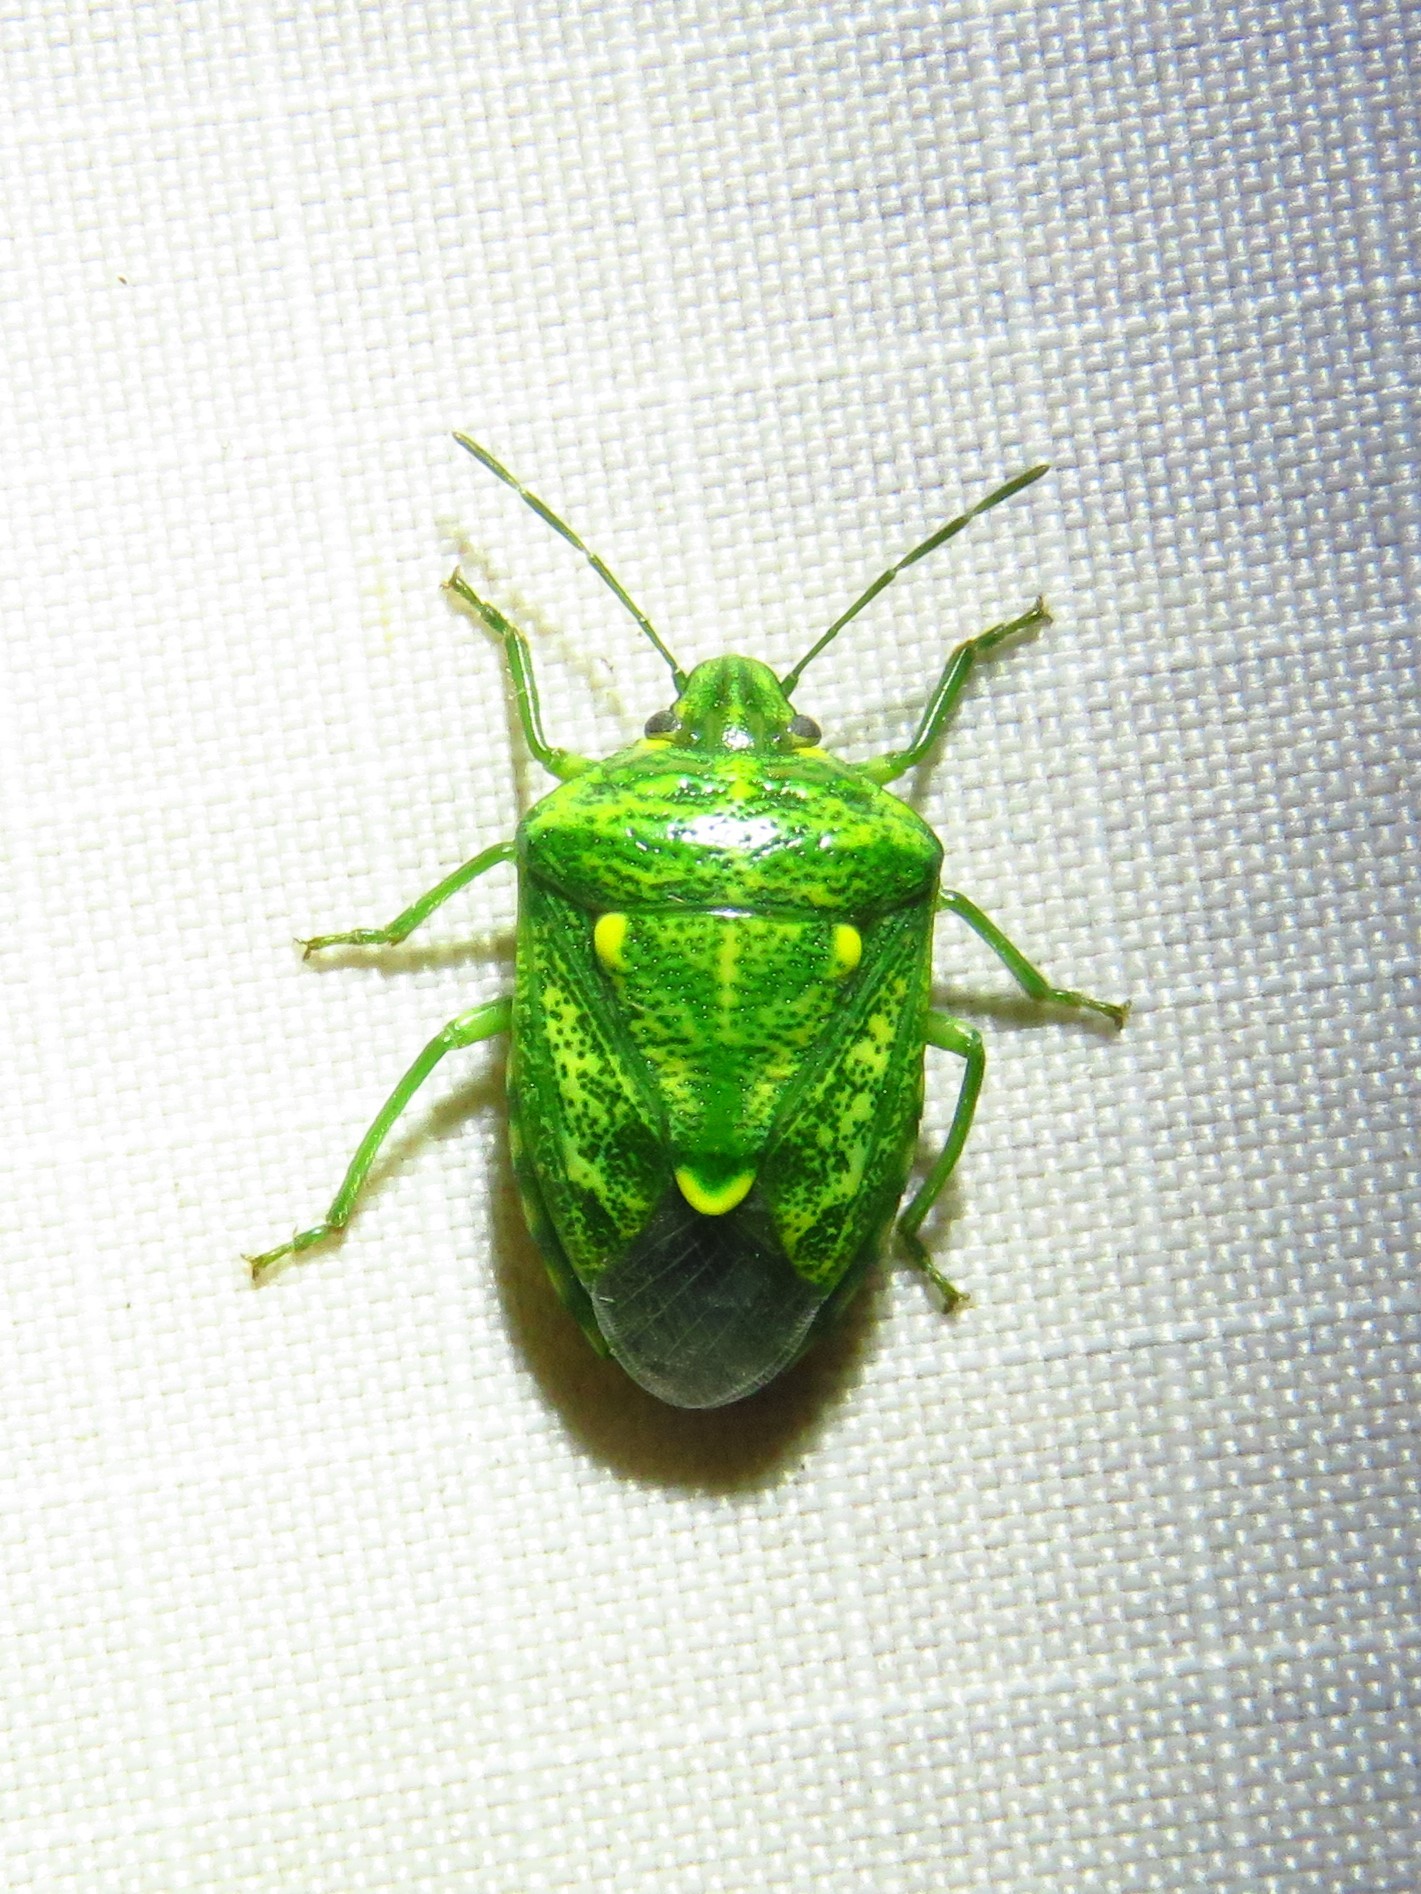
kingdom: Animalia
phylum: Arthropoda
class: Insecta
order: Hemiptera
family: Pentatomidae
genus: Banasa
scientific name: Banasa euchlora
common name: Cedar berry bug
